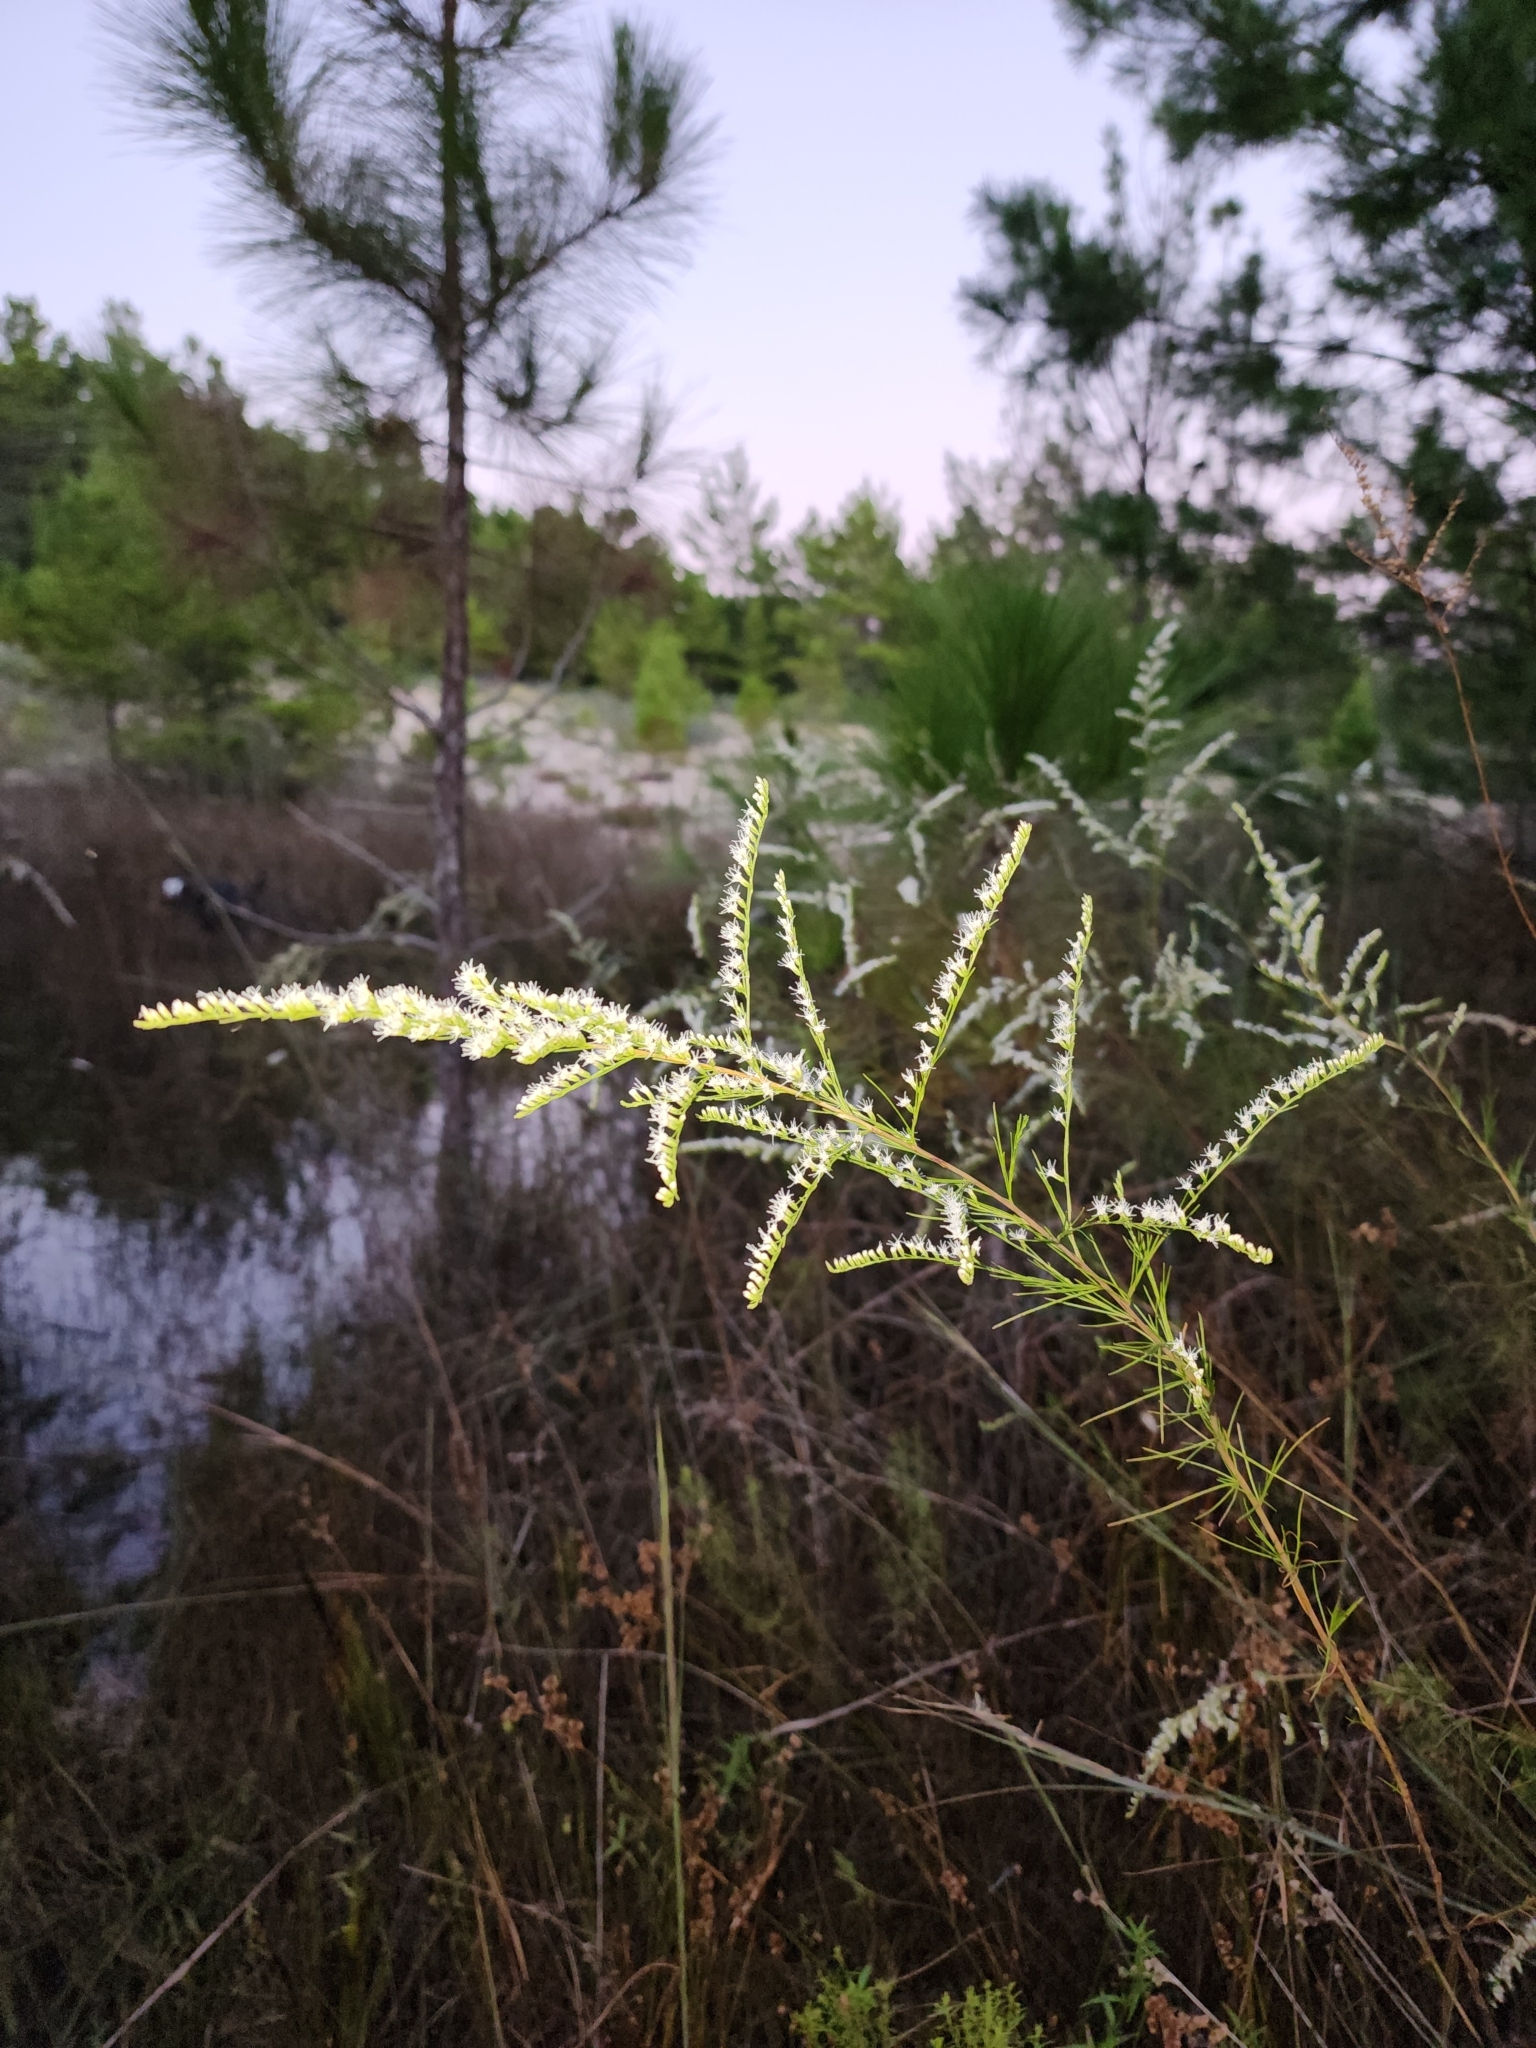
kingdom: Plantae
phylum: Tracheophyta
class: Magnoliopsida
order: Asterales
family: Asteraceae
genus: Eupatorium
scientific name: Eupatorium leptophyllum
